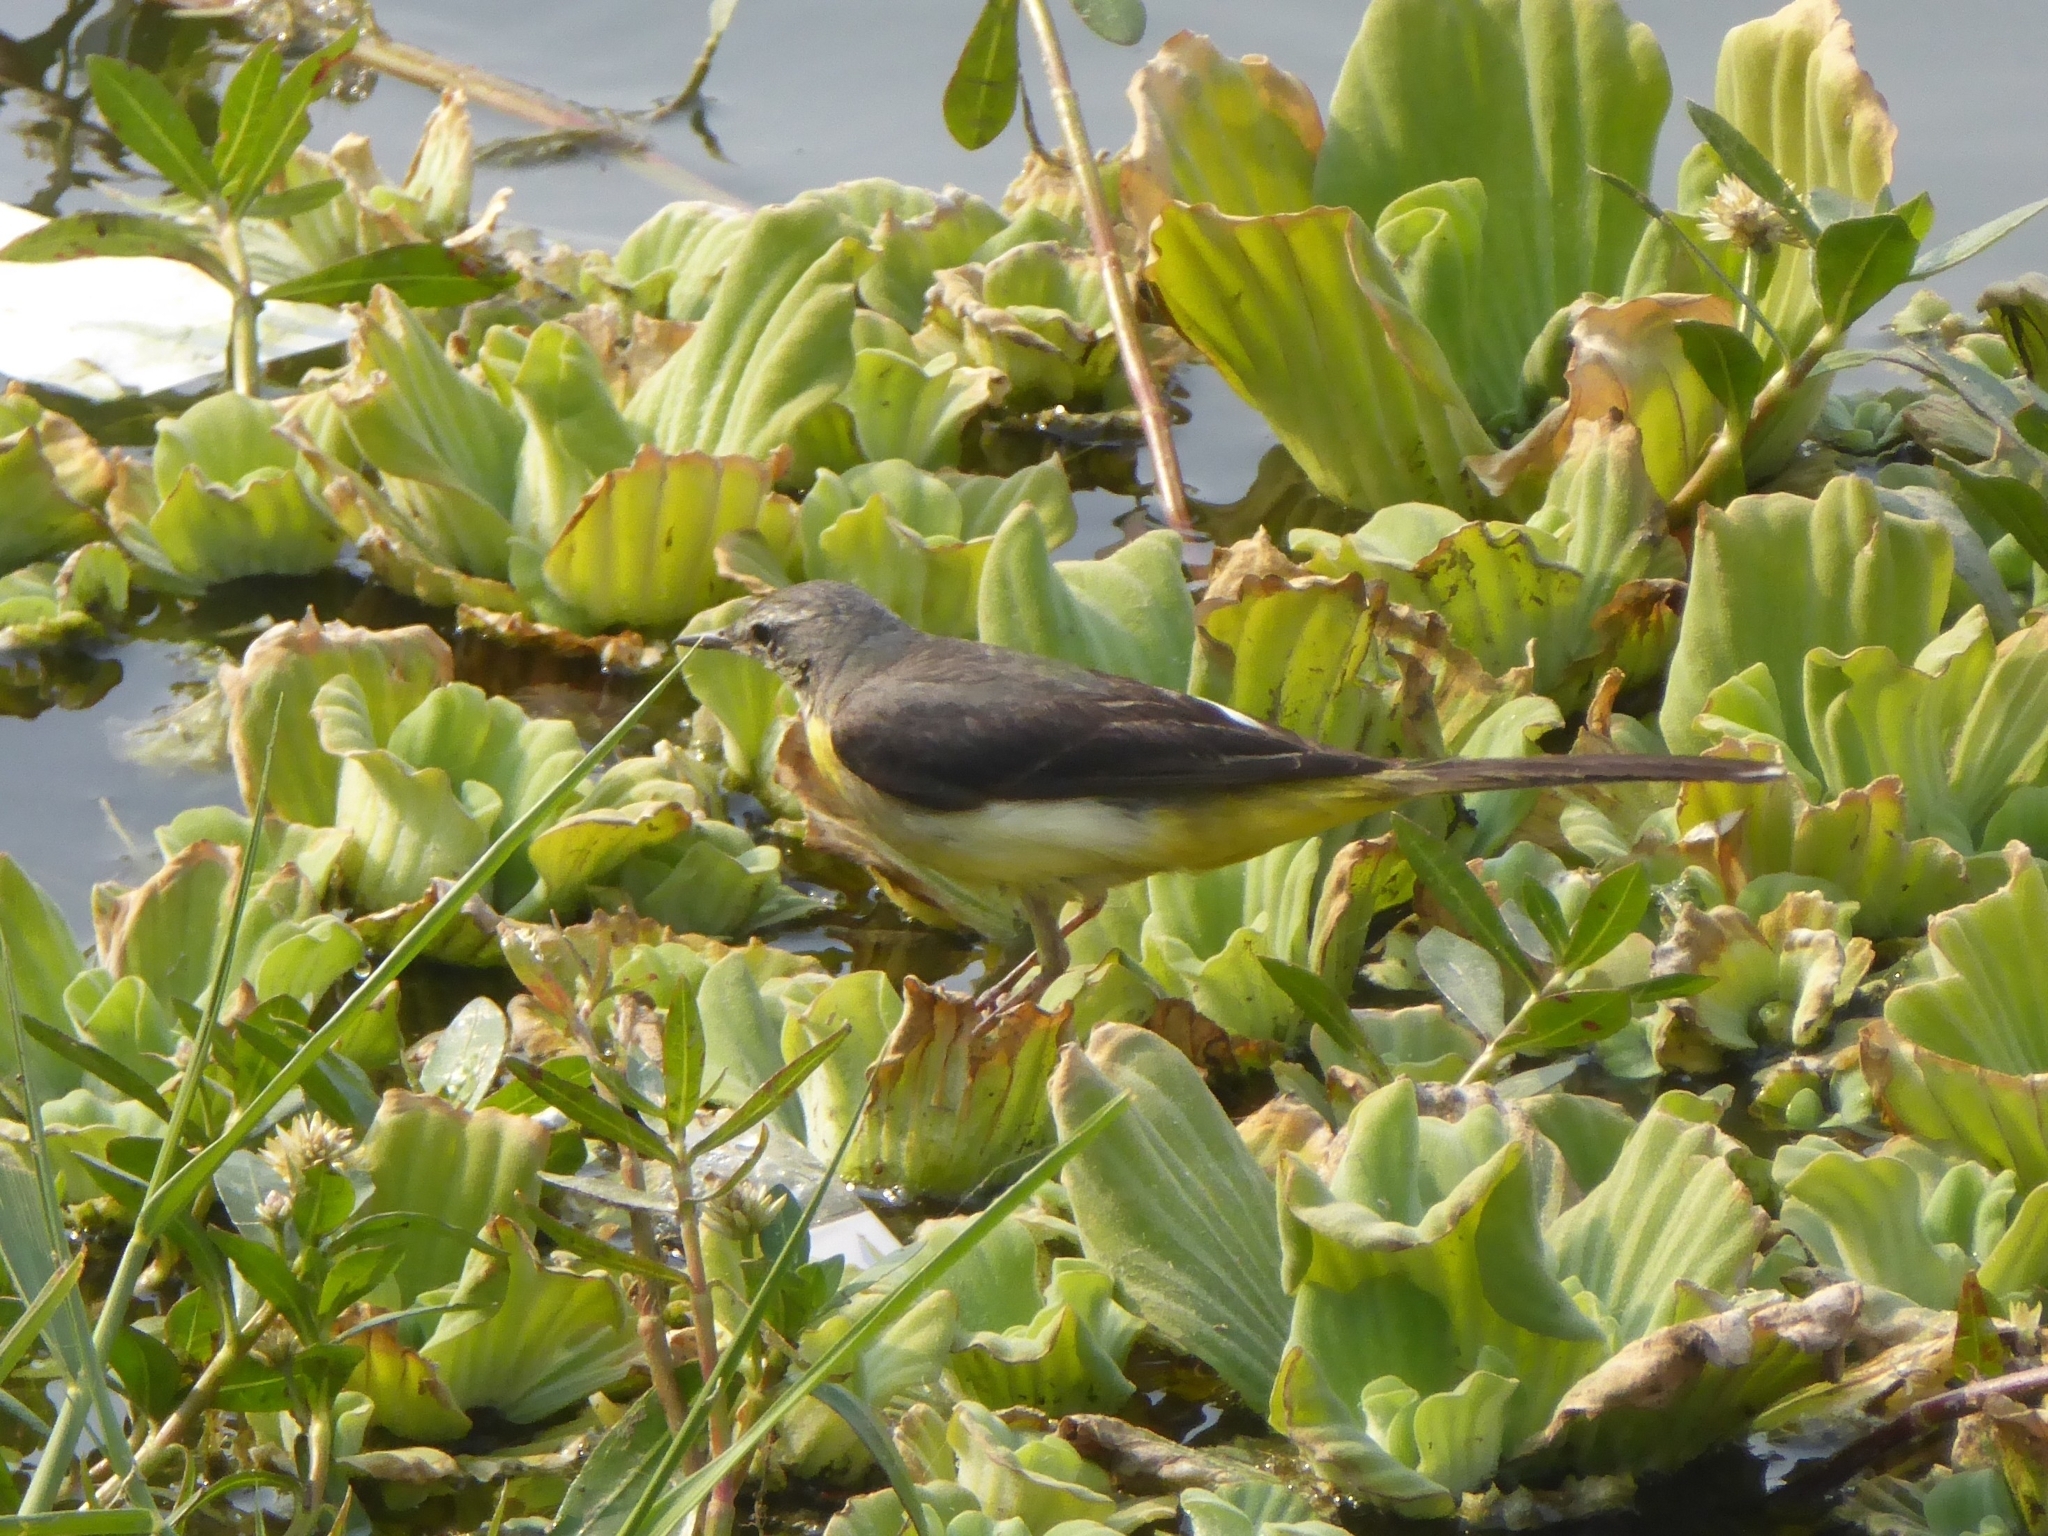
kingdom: Animalia
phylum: Chordata
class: Aves
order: Passeriformes
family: Motacillidae
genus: Motacilla
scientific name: Motacilla cinerea
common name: Grey wagtail
